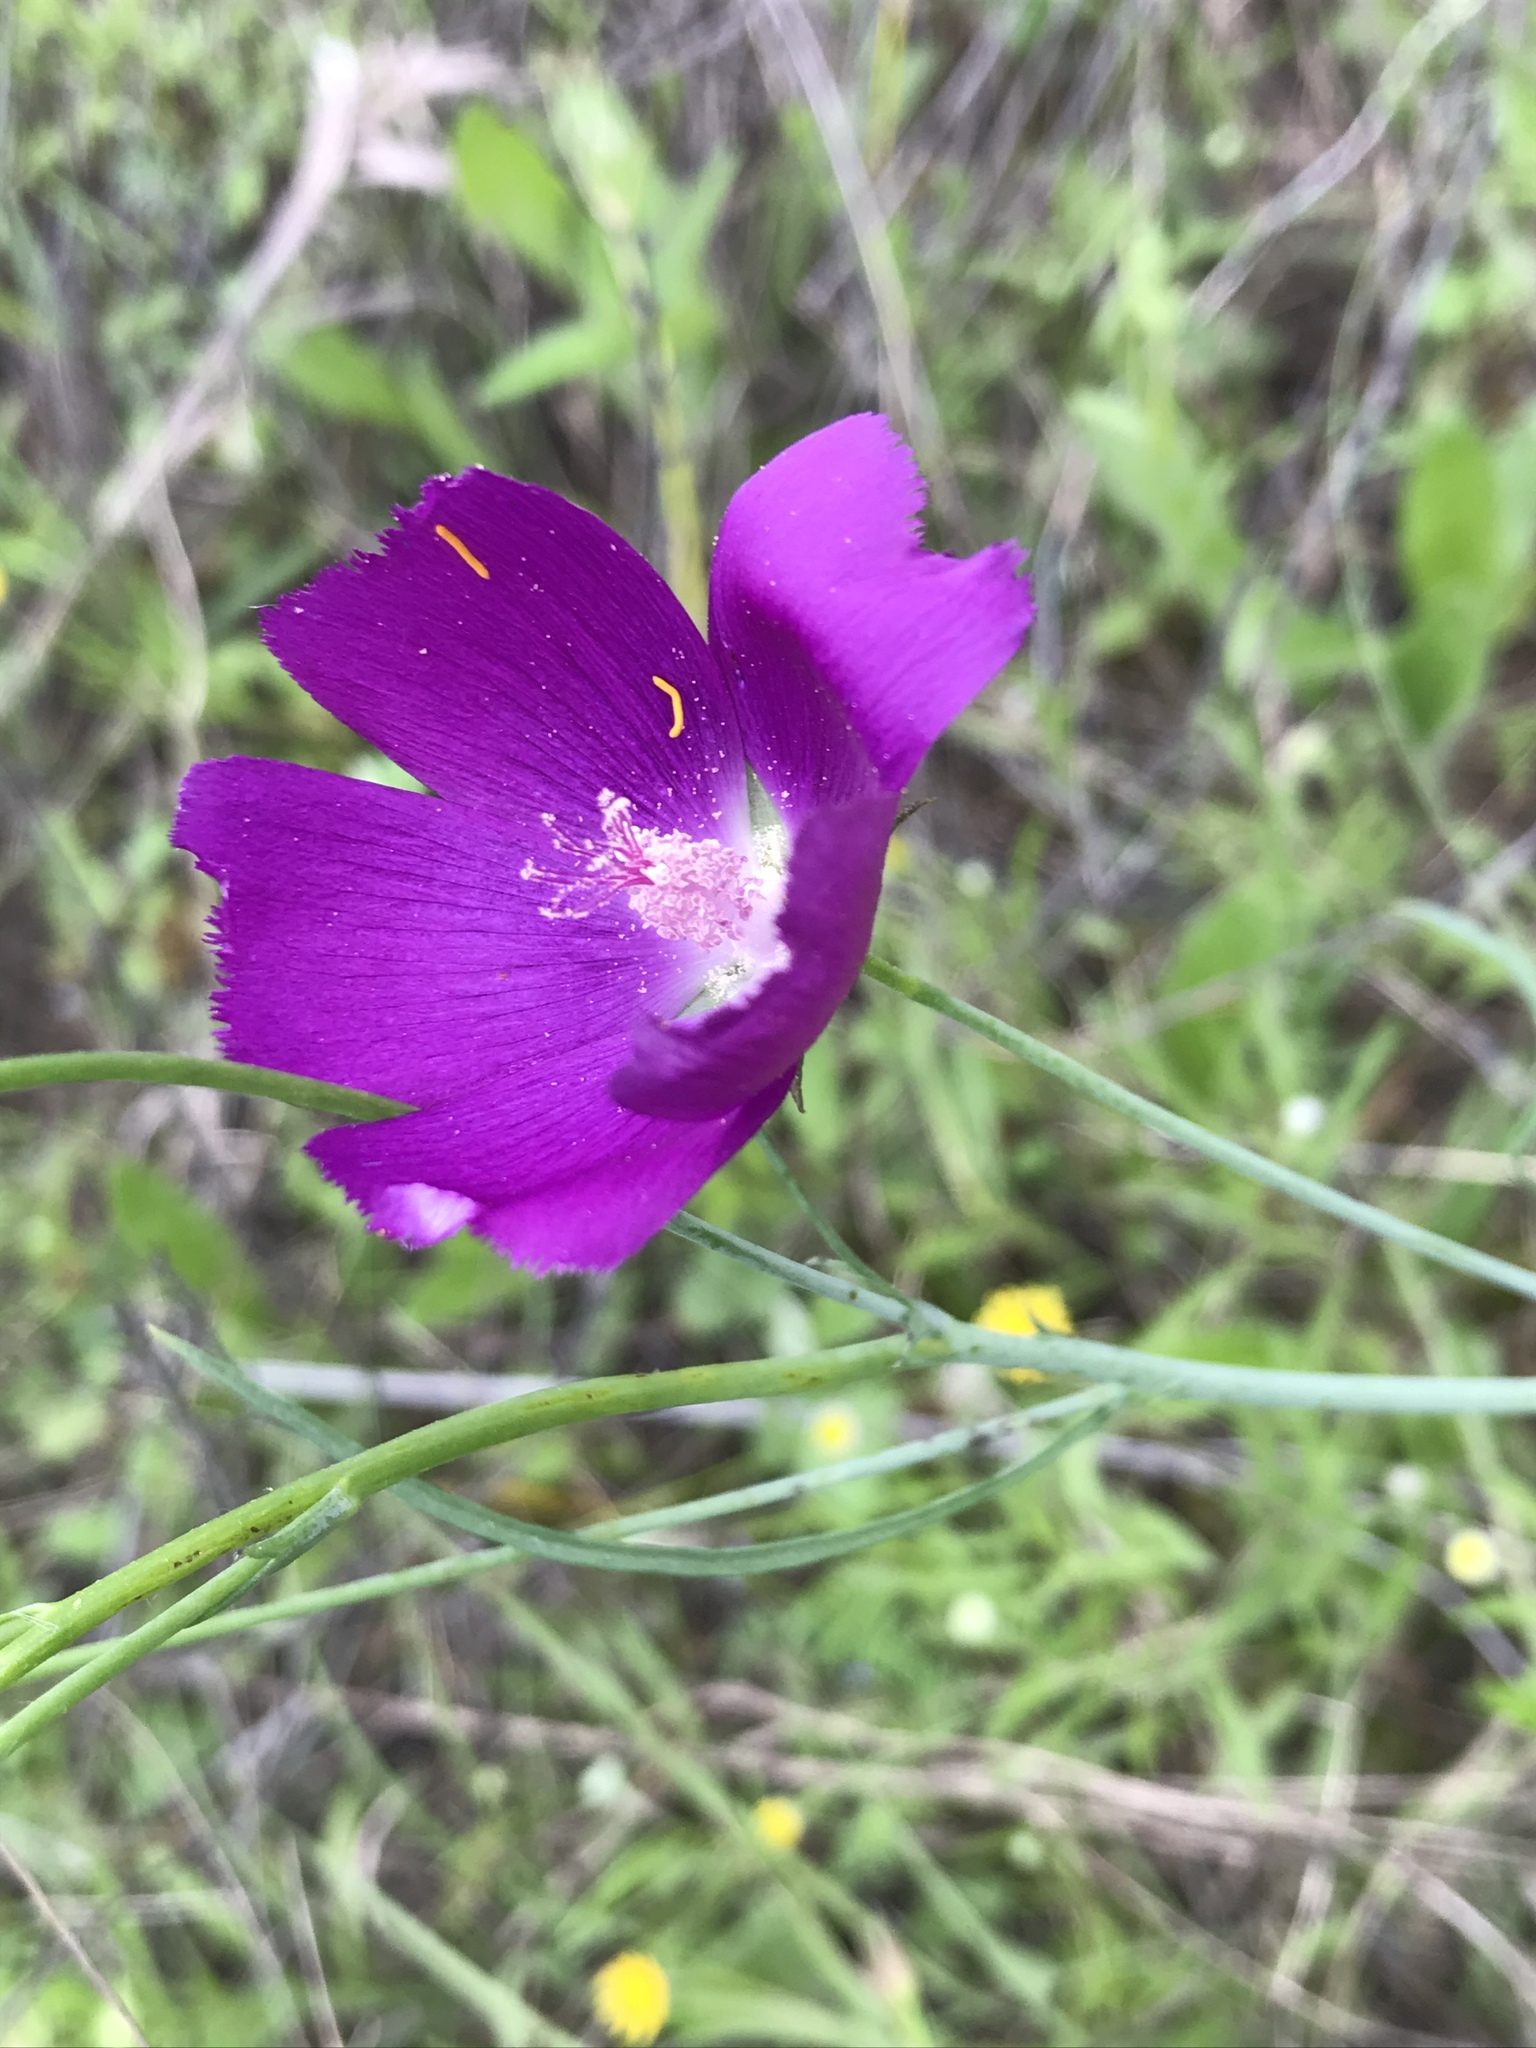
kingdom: Plantae
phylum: Tracheophyta
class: Magnoliopsida
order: Malvales
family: Malvaceae
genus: Callirhoe
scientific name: Callirhoe pedata
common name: Finger poppy-mallow
